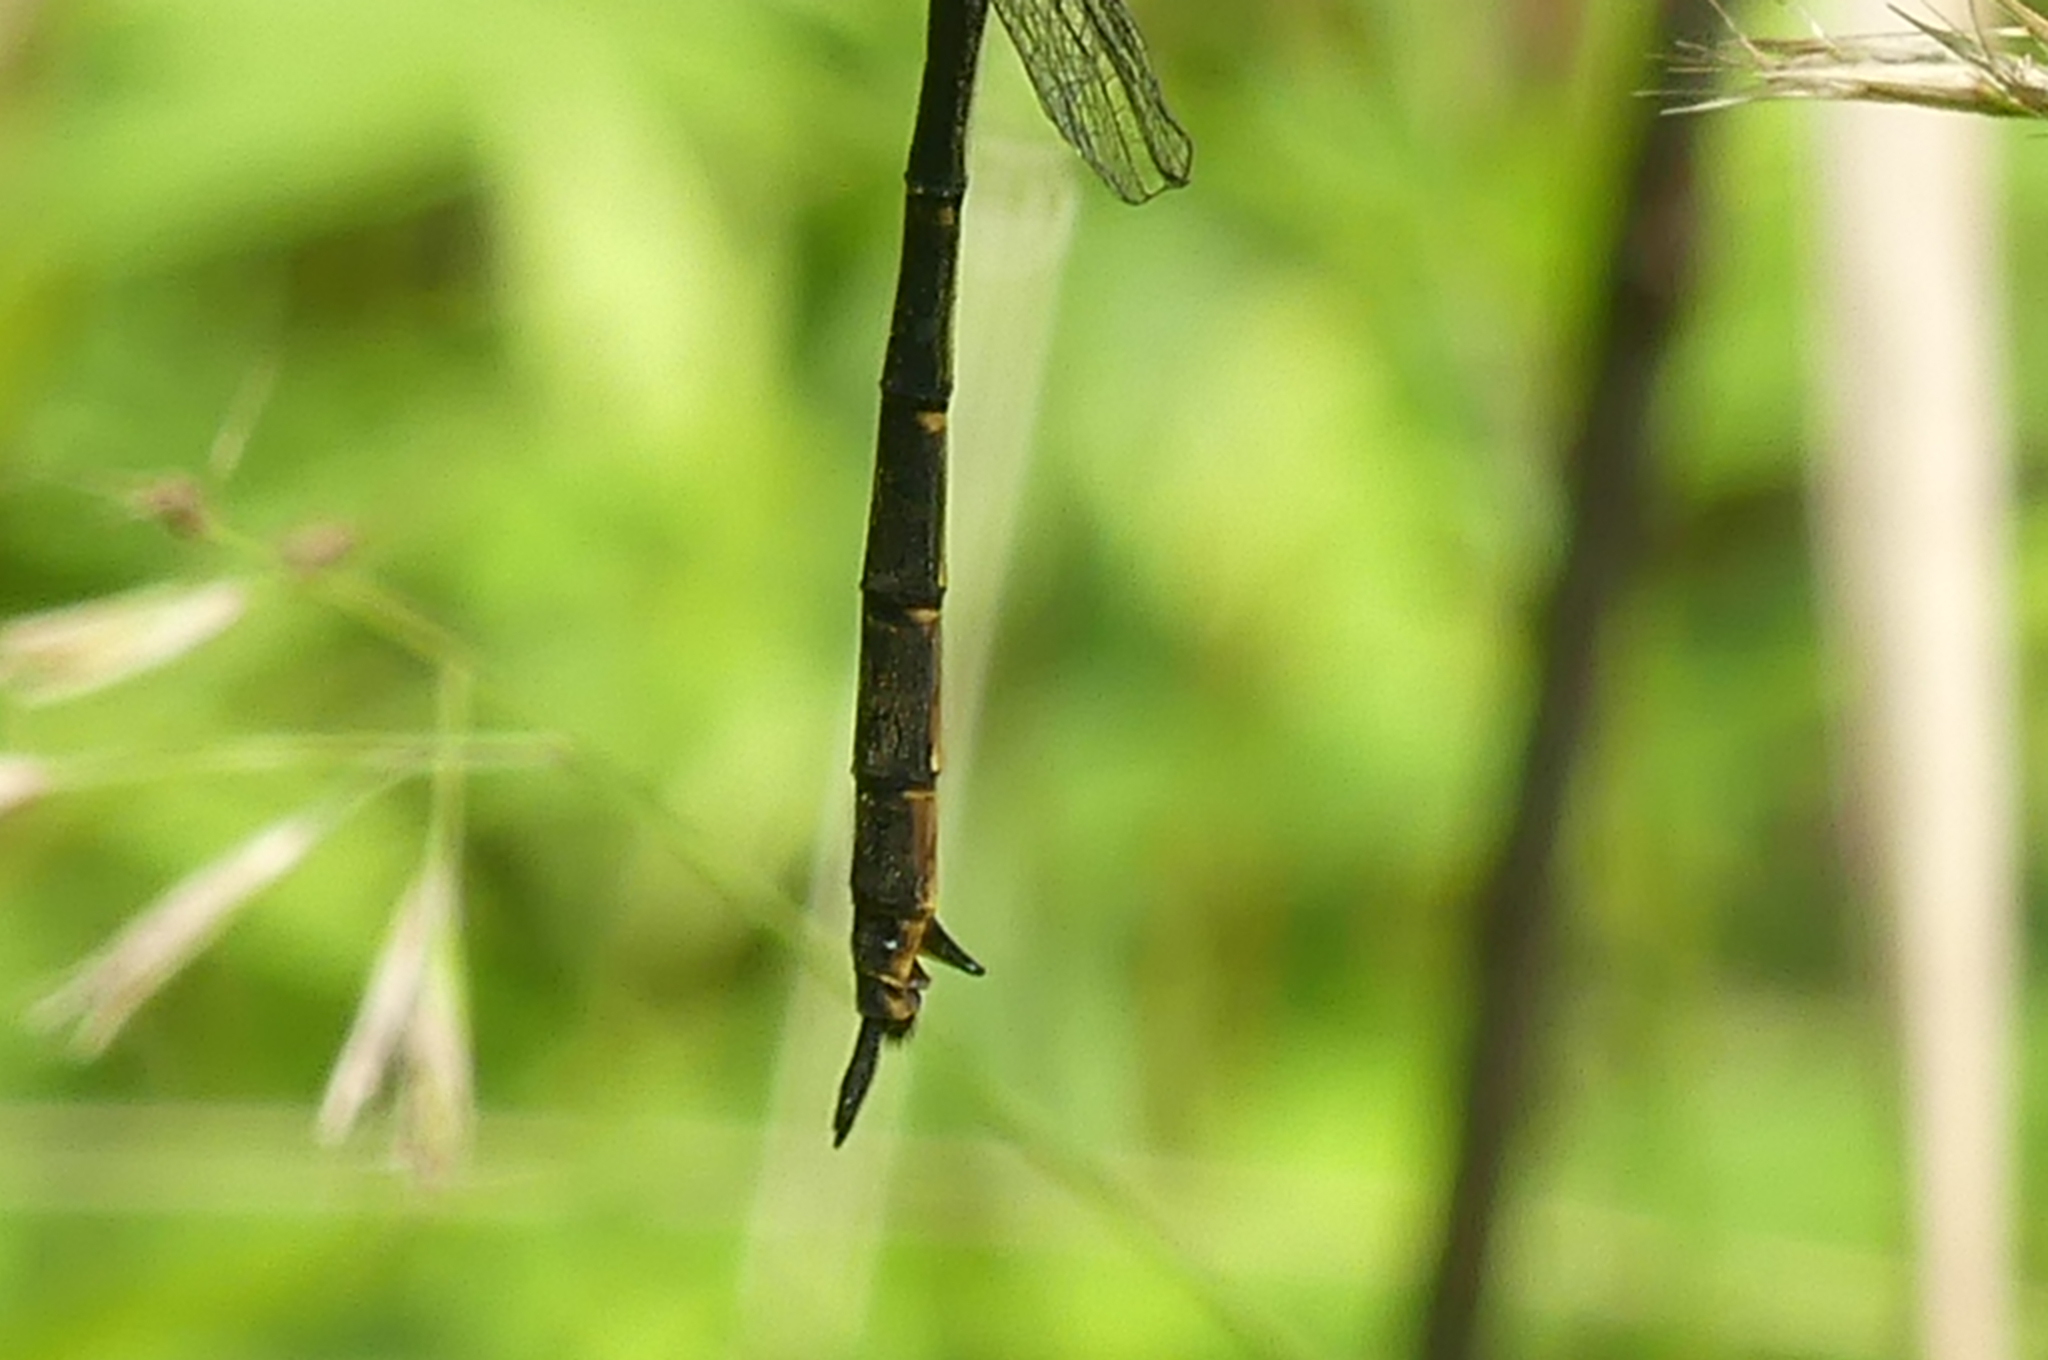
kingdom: Animalia
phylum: Arthropoda
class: Insecta
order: Odonata
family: Corduliidae
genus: Somatochlora
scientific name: Somatochlora tenebrosa
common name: Clamp-tipped emerald
